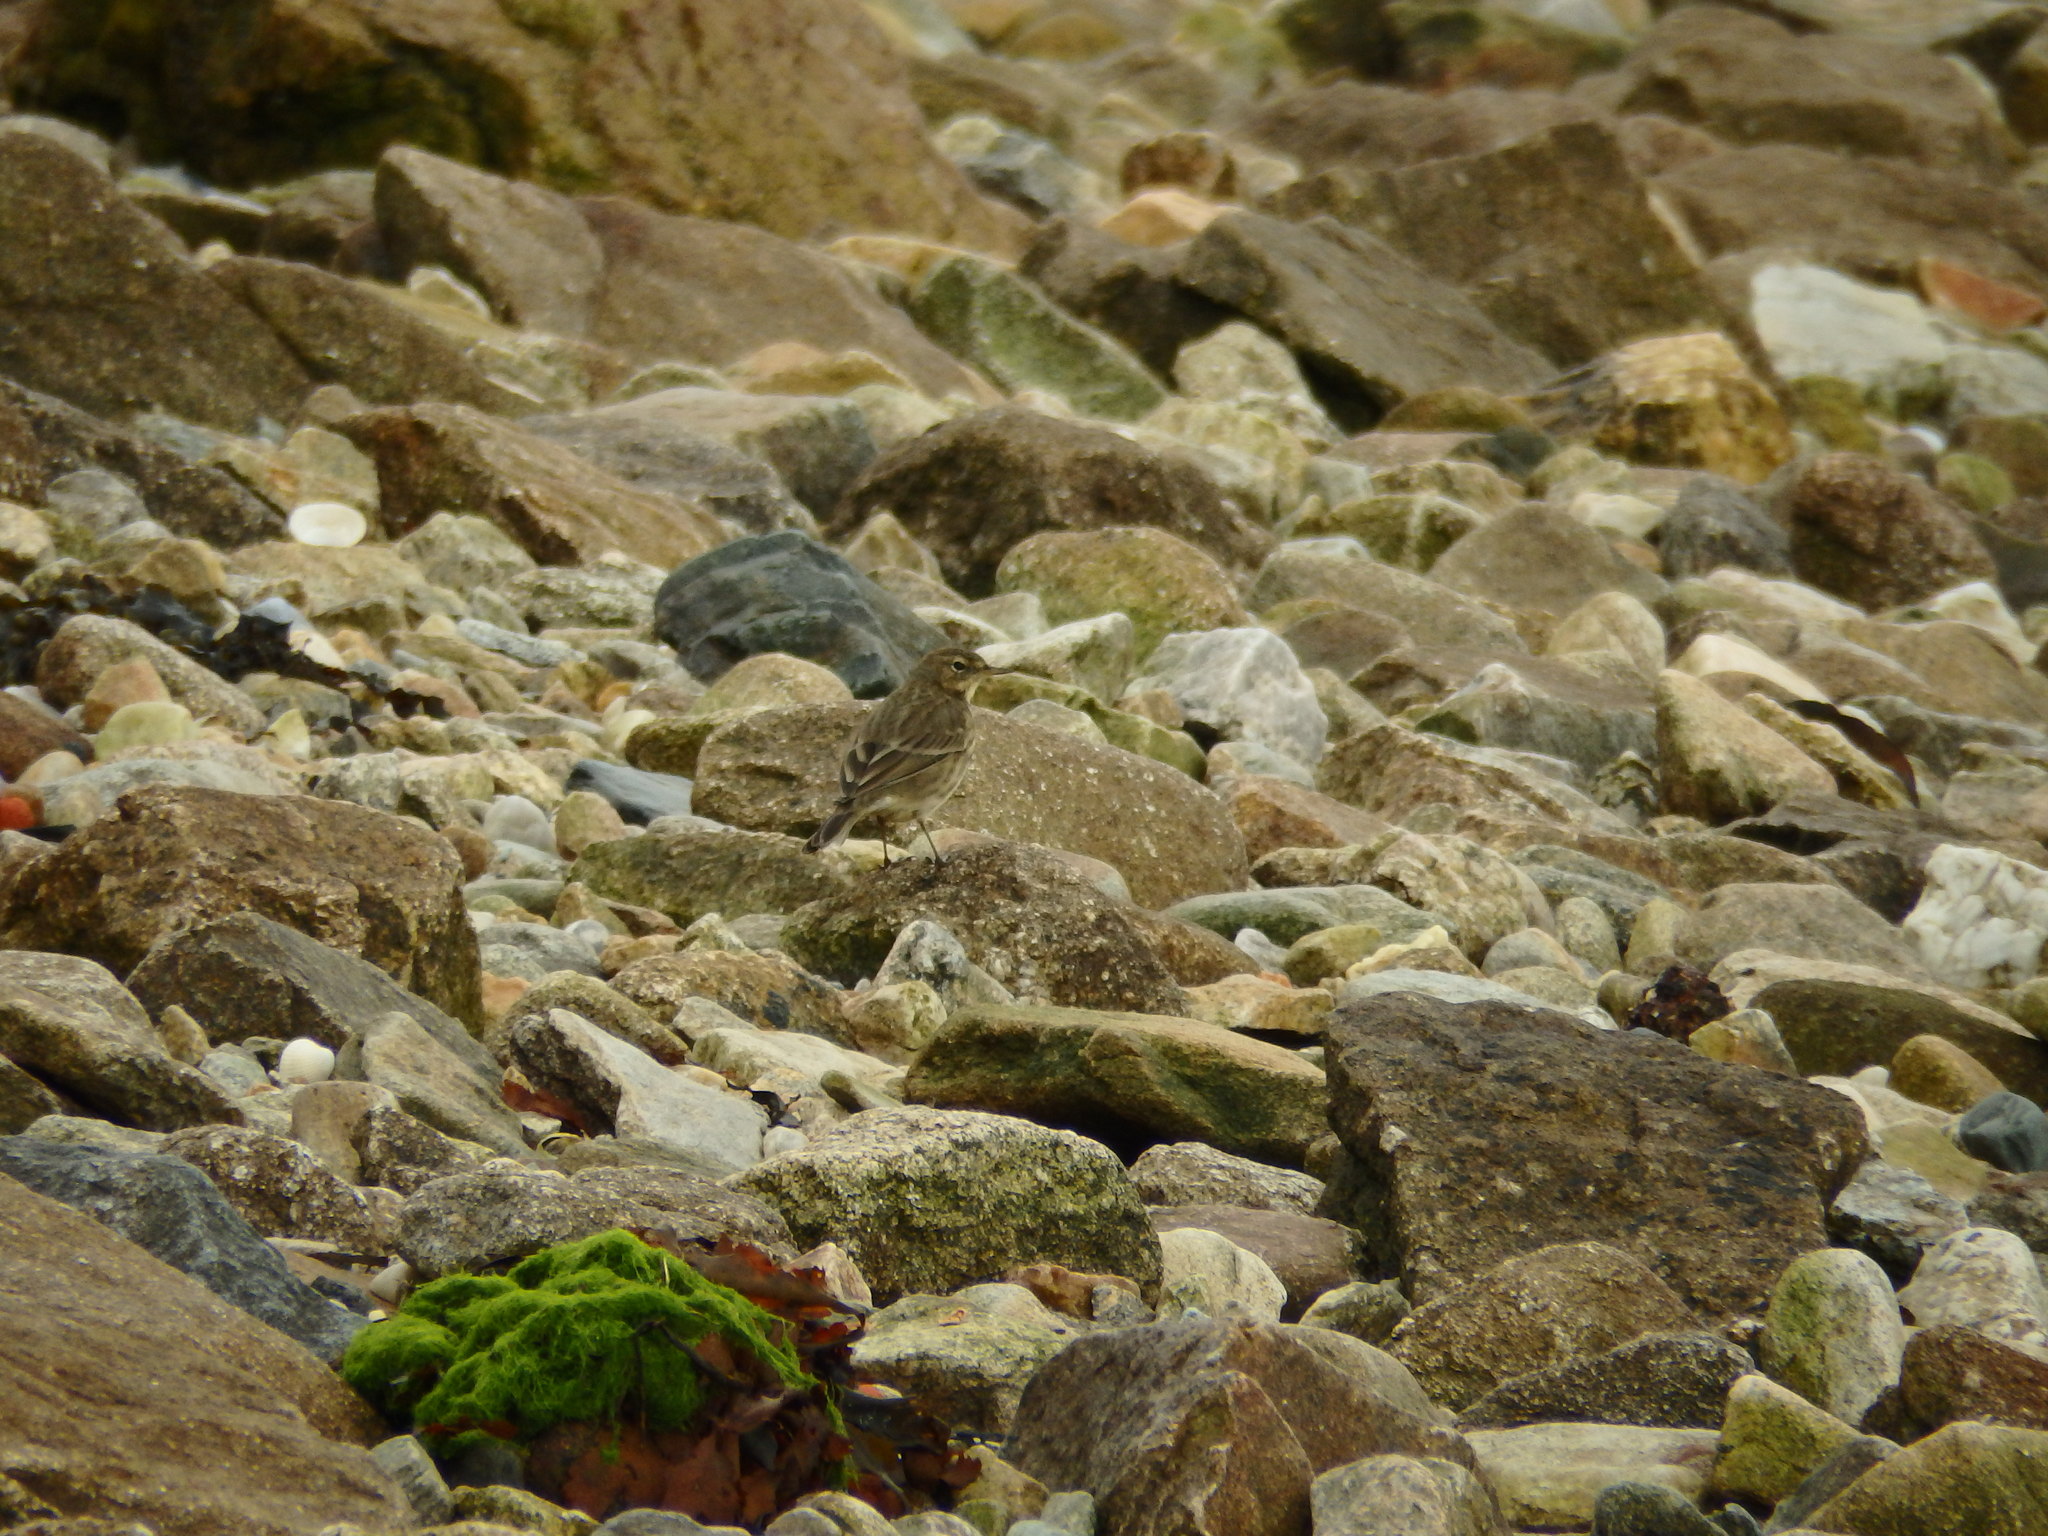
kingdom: Animalia
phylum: Chordata
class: Aves
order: Passeriformes
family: Motacillidae
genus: Anthus
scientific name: Anthus petrosus
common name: Eurasian rock pipit
